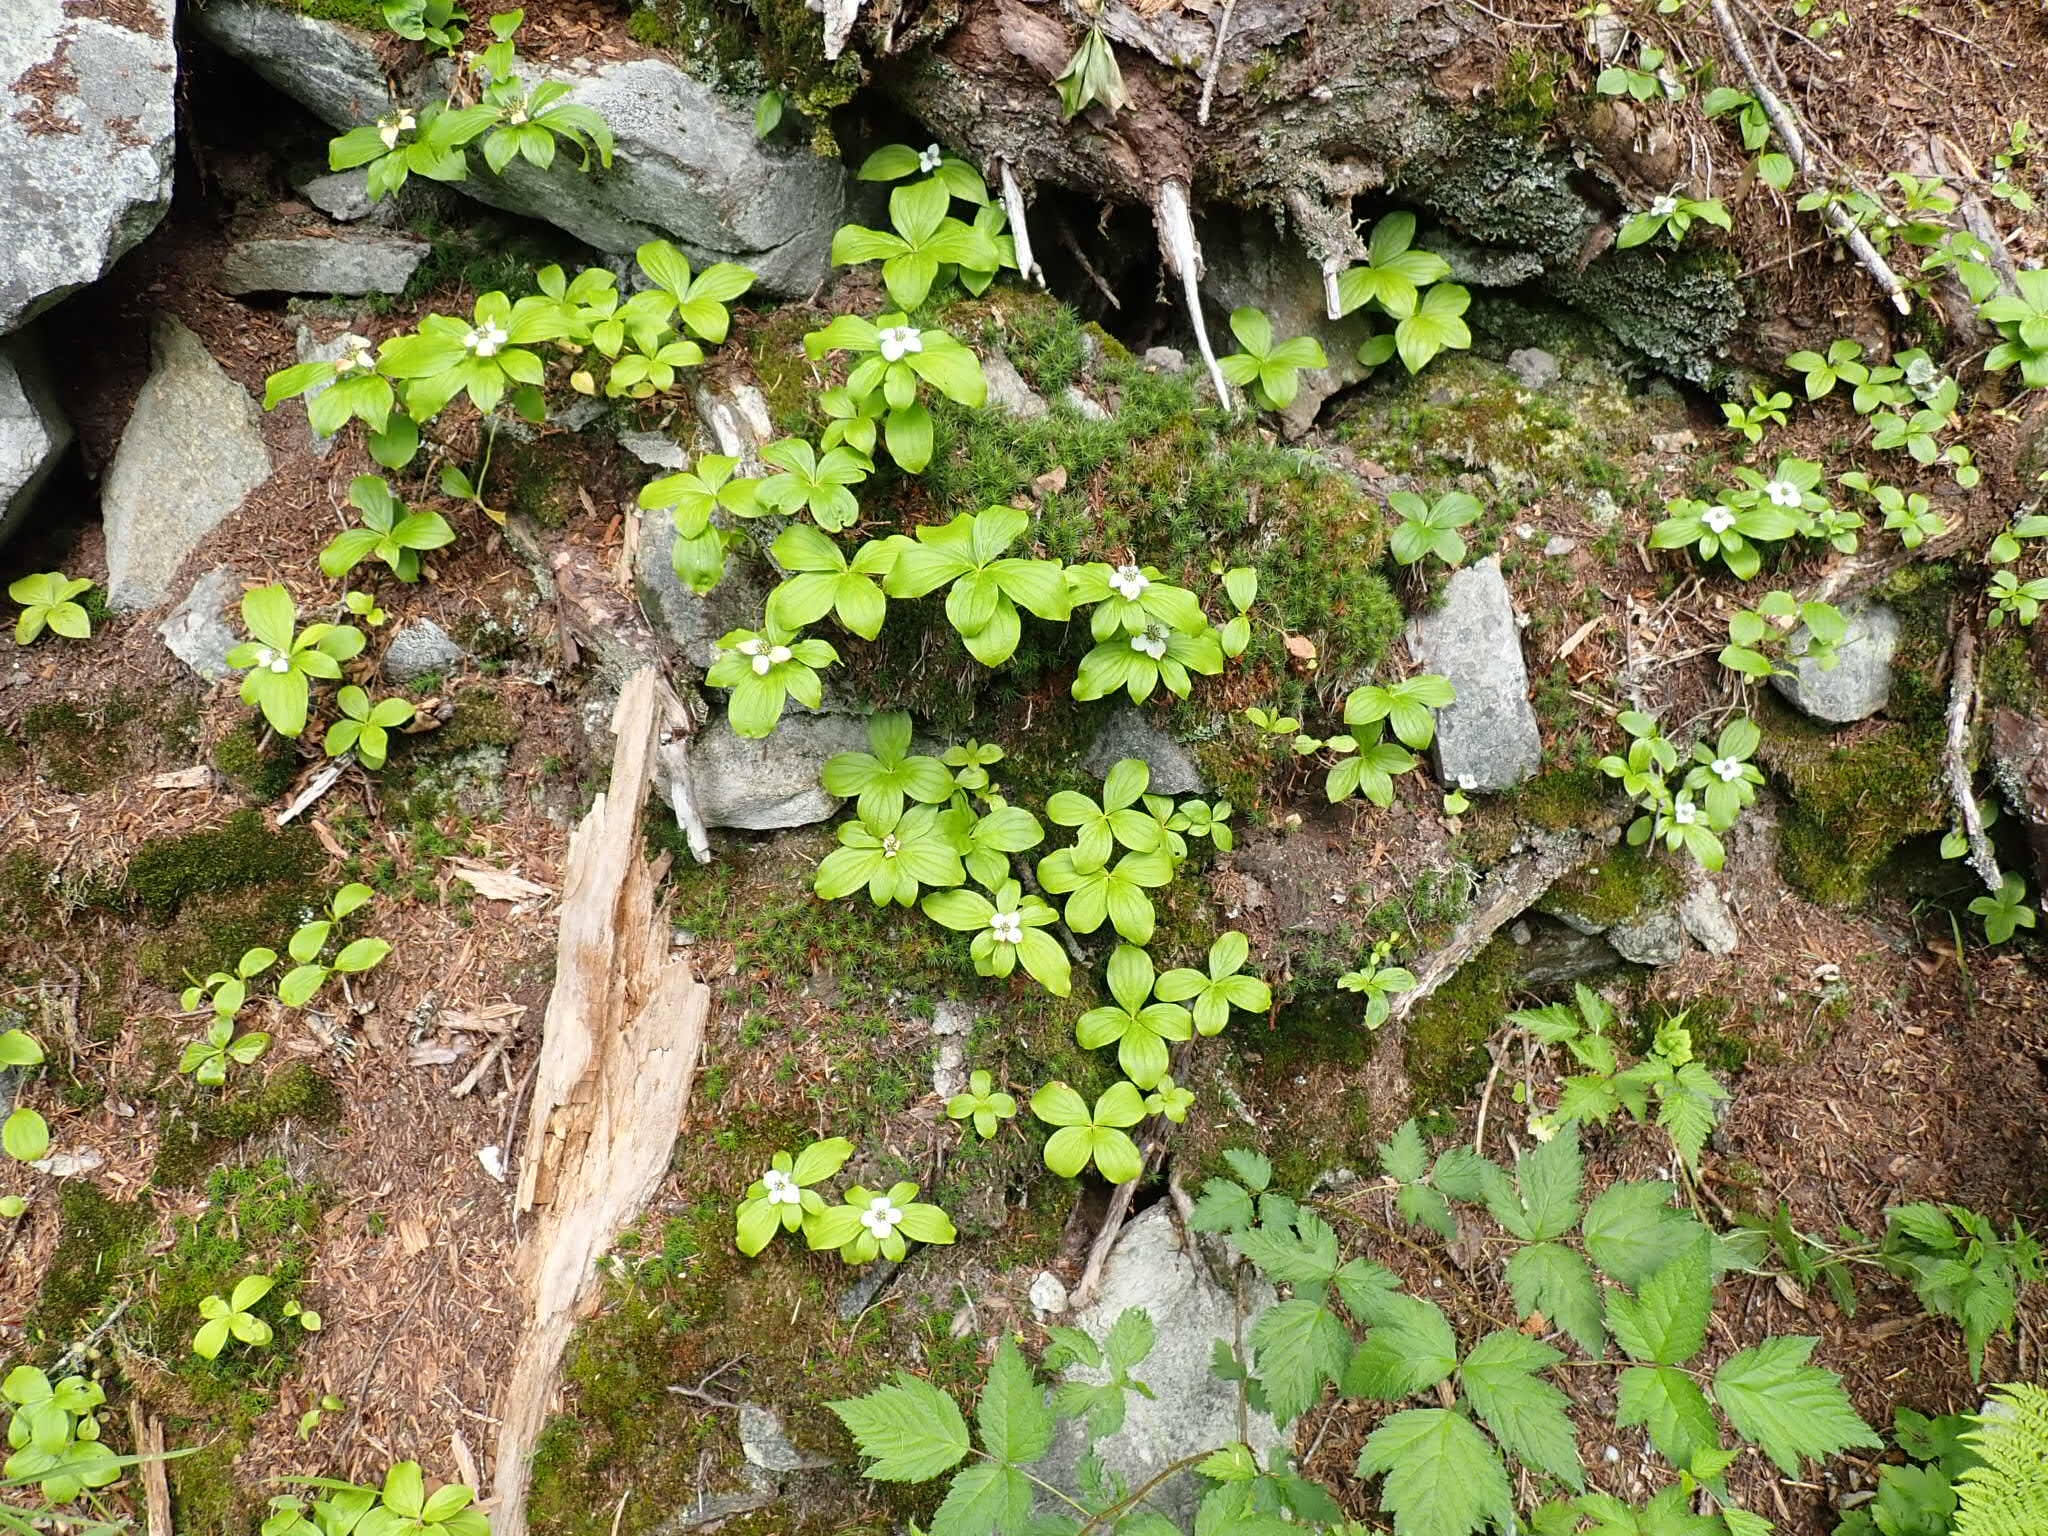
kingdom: Plantae
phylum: Tracheophyta
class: Magnoliopsida
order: Cornales
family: Cornaceae
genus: Cornus
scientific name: Cornus unalaschkensis
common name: Alaska bunchberry
